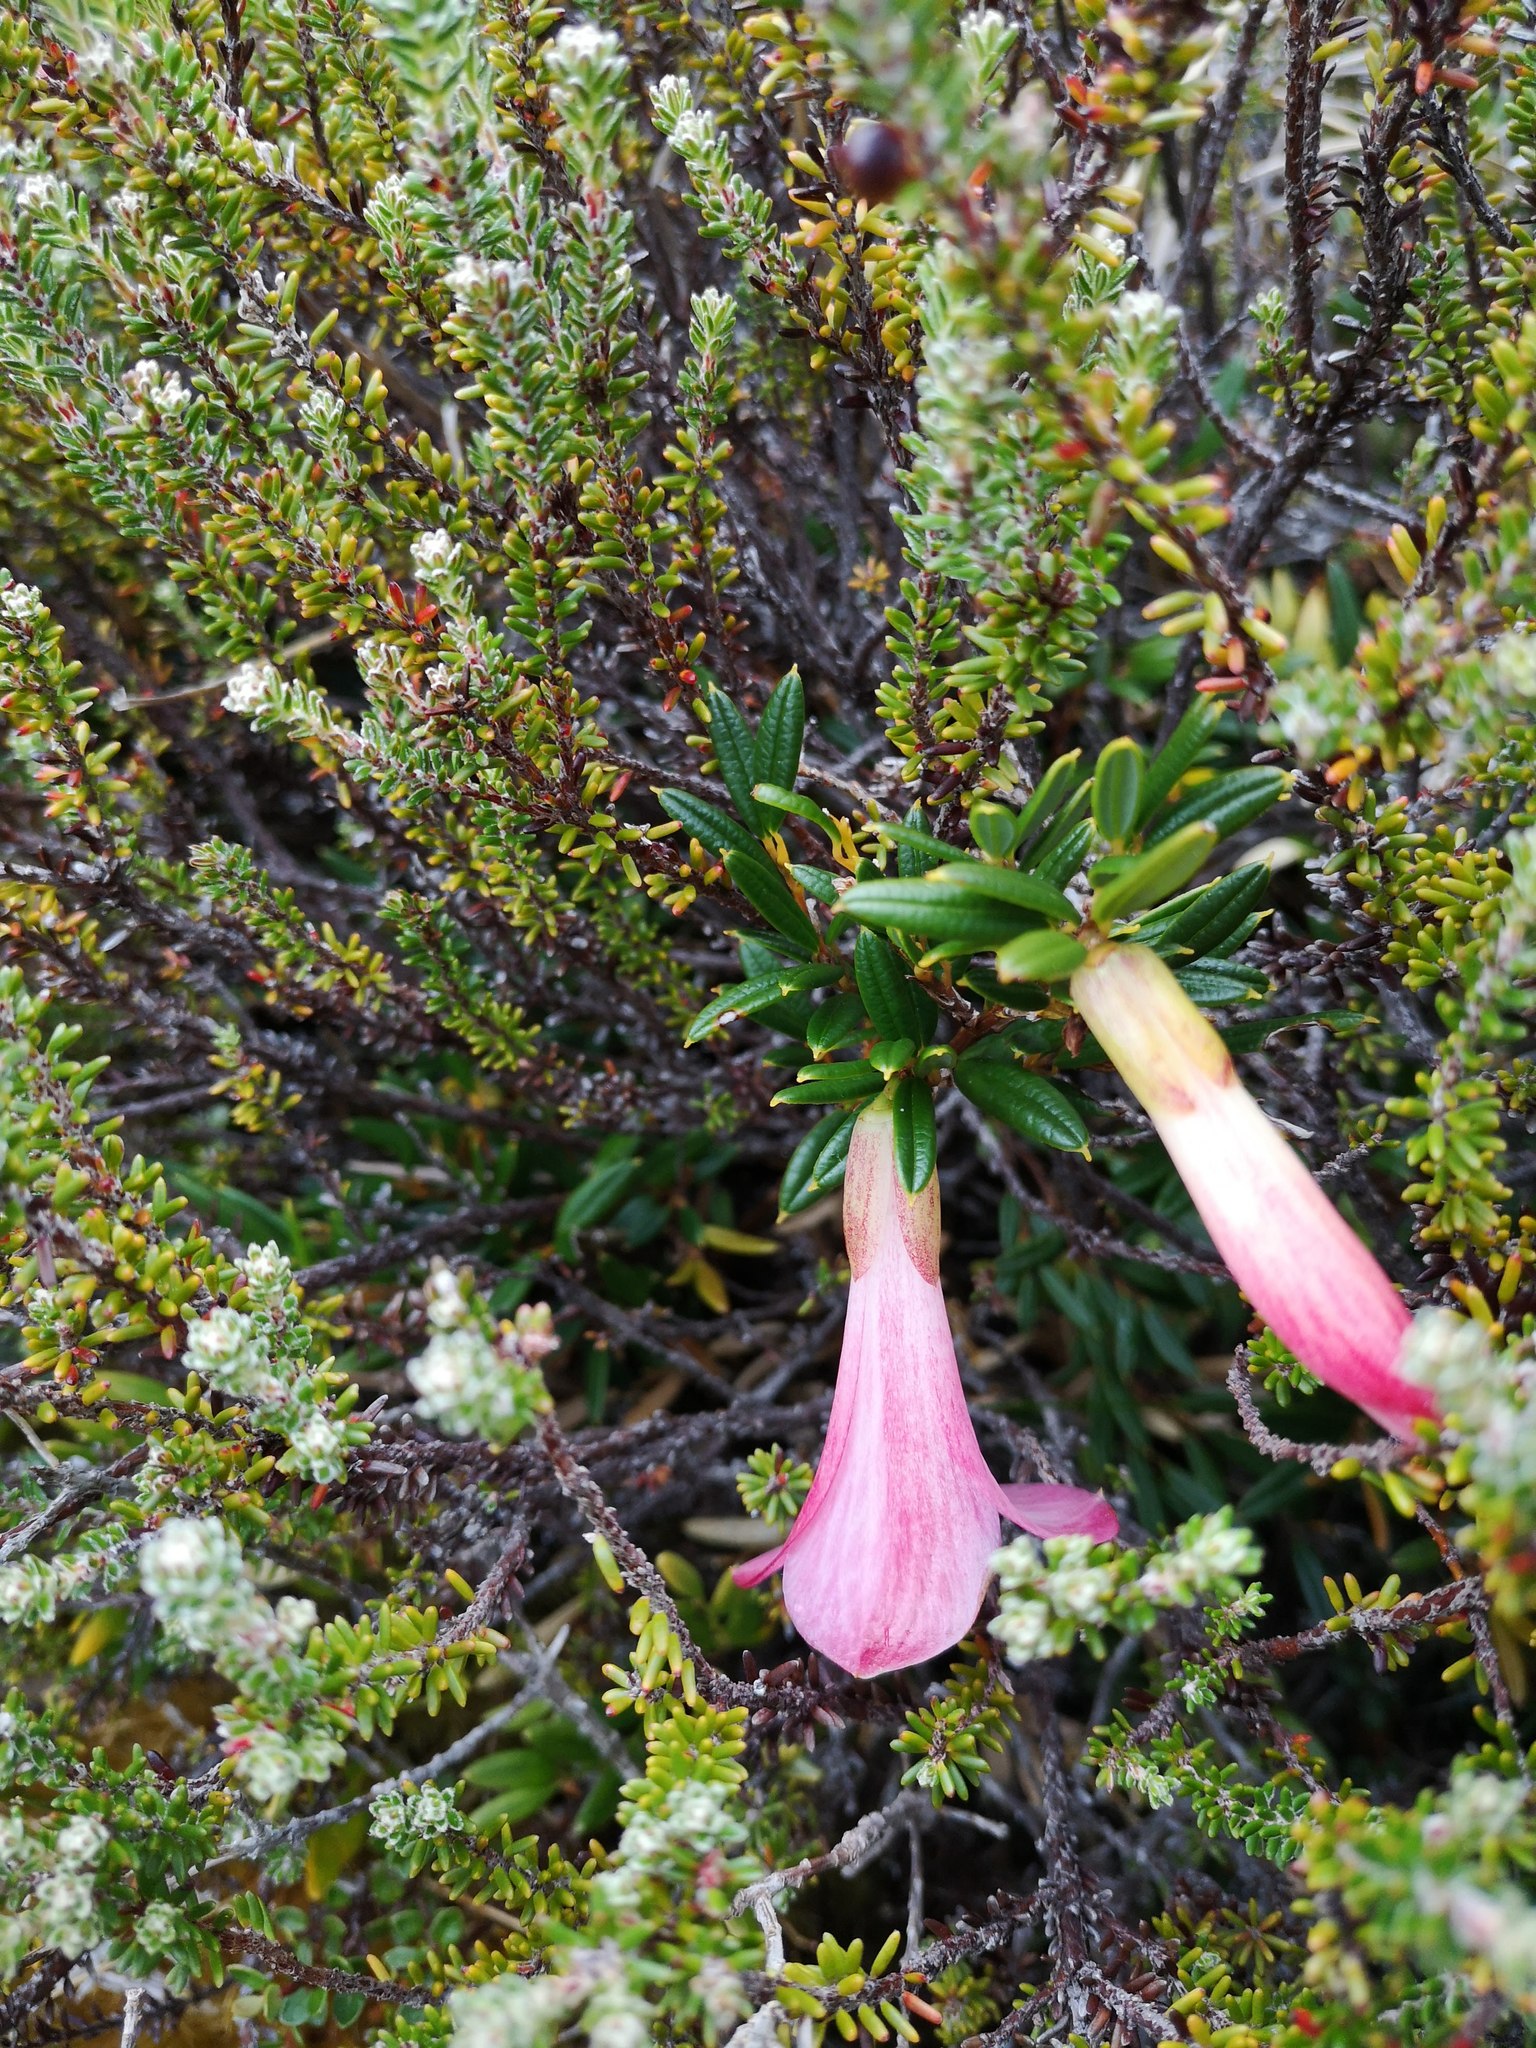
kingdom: Plantae
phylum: Tracheophyta
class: Liliopsida
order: Liliales
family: Philesiaceae
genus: Philesia
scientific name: Philesia magellanica
